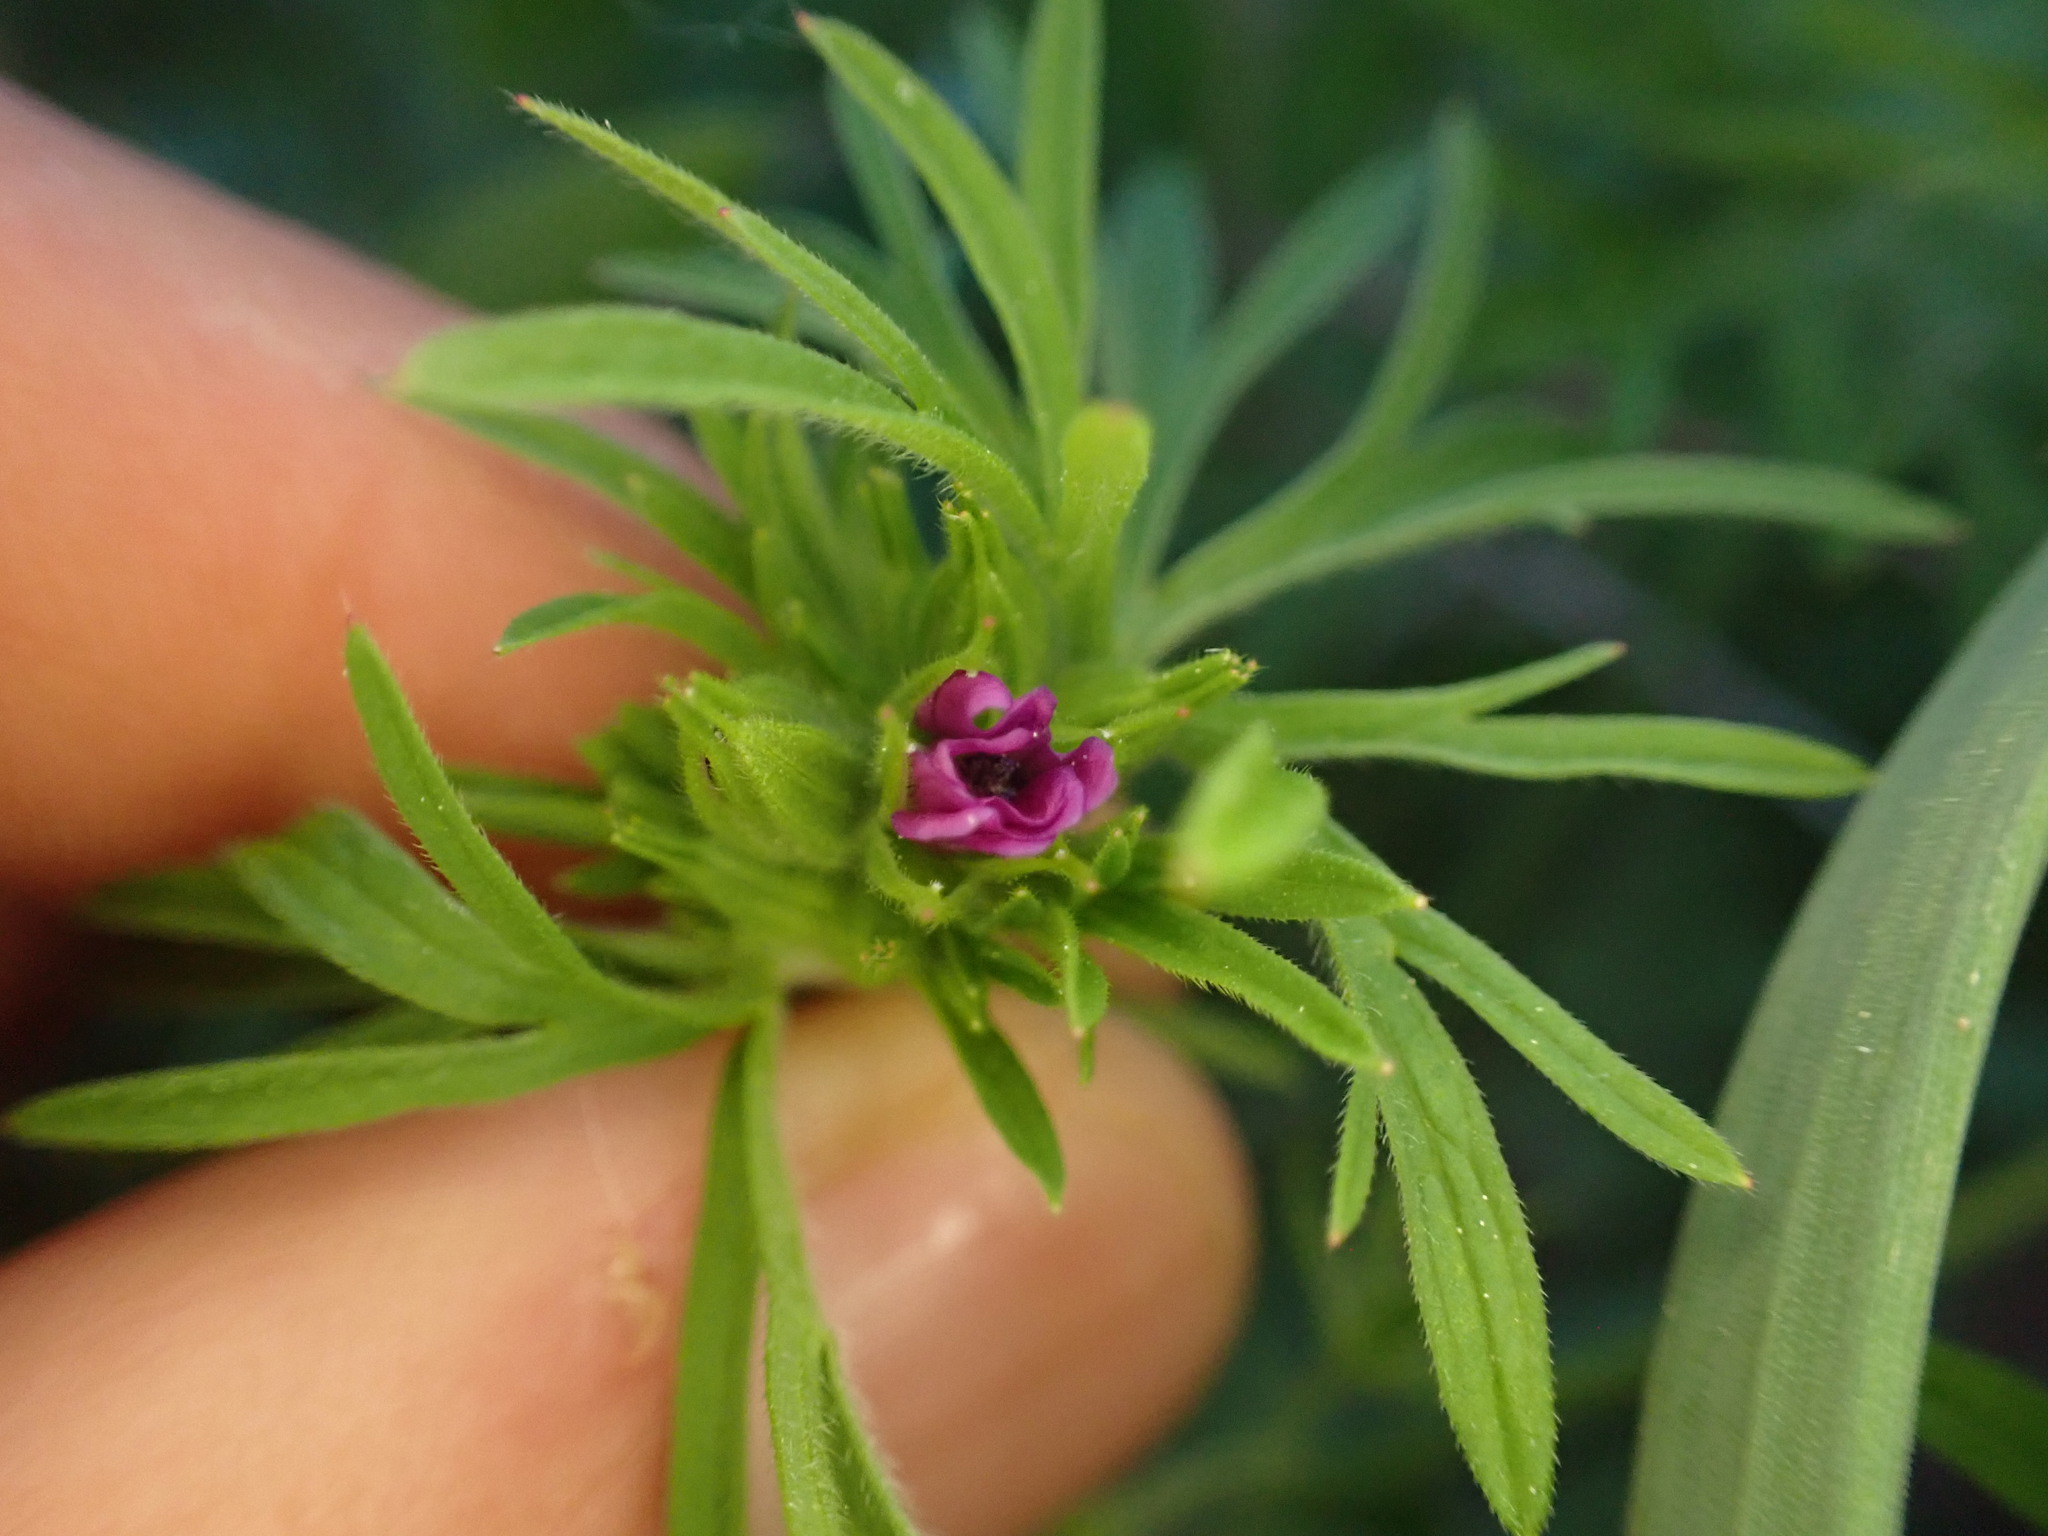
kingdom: Plantae
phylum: Tracheophyta
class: Magnoliopsida
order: Geraniales
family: Geraniaceae
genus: Geranium
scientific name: Geranium dissectum
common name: Cut-leaved crane's-bill
